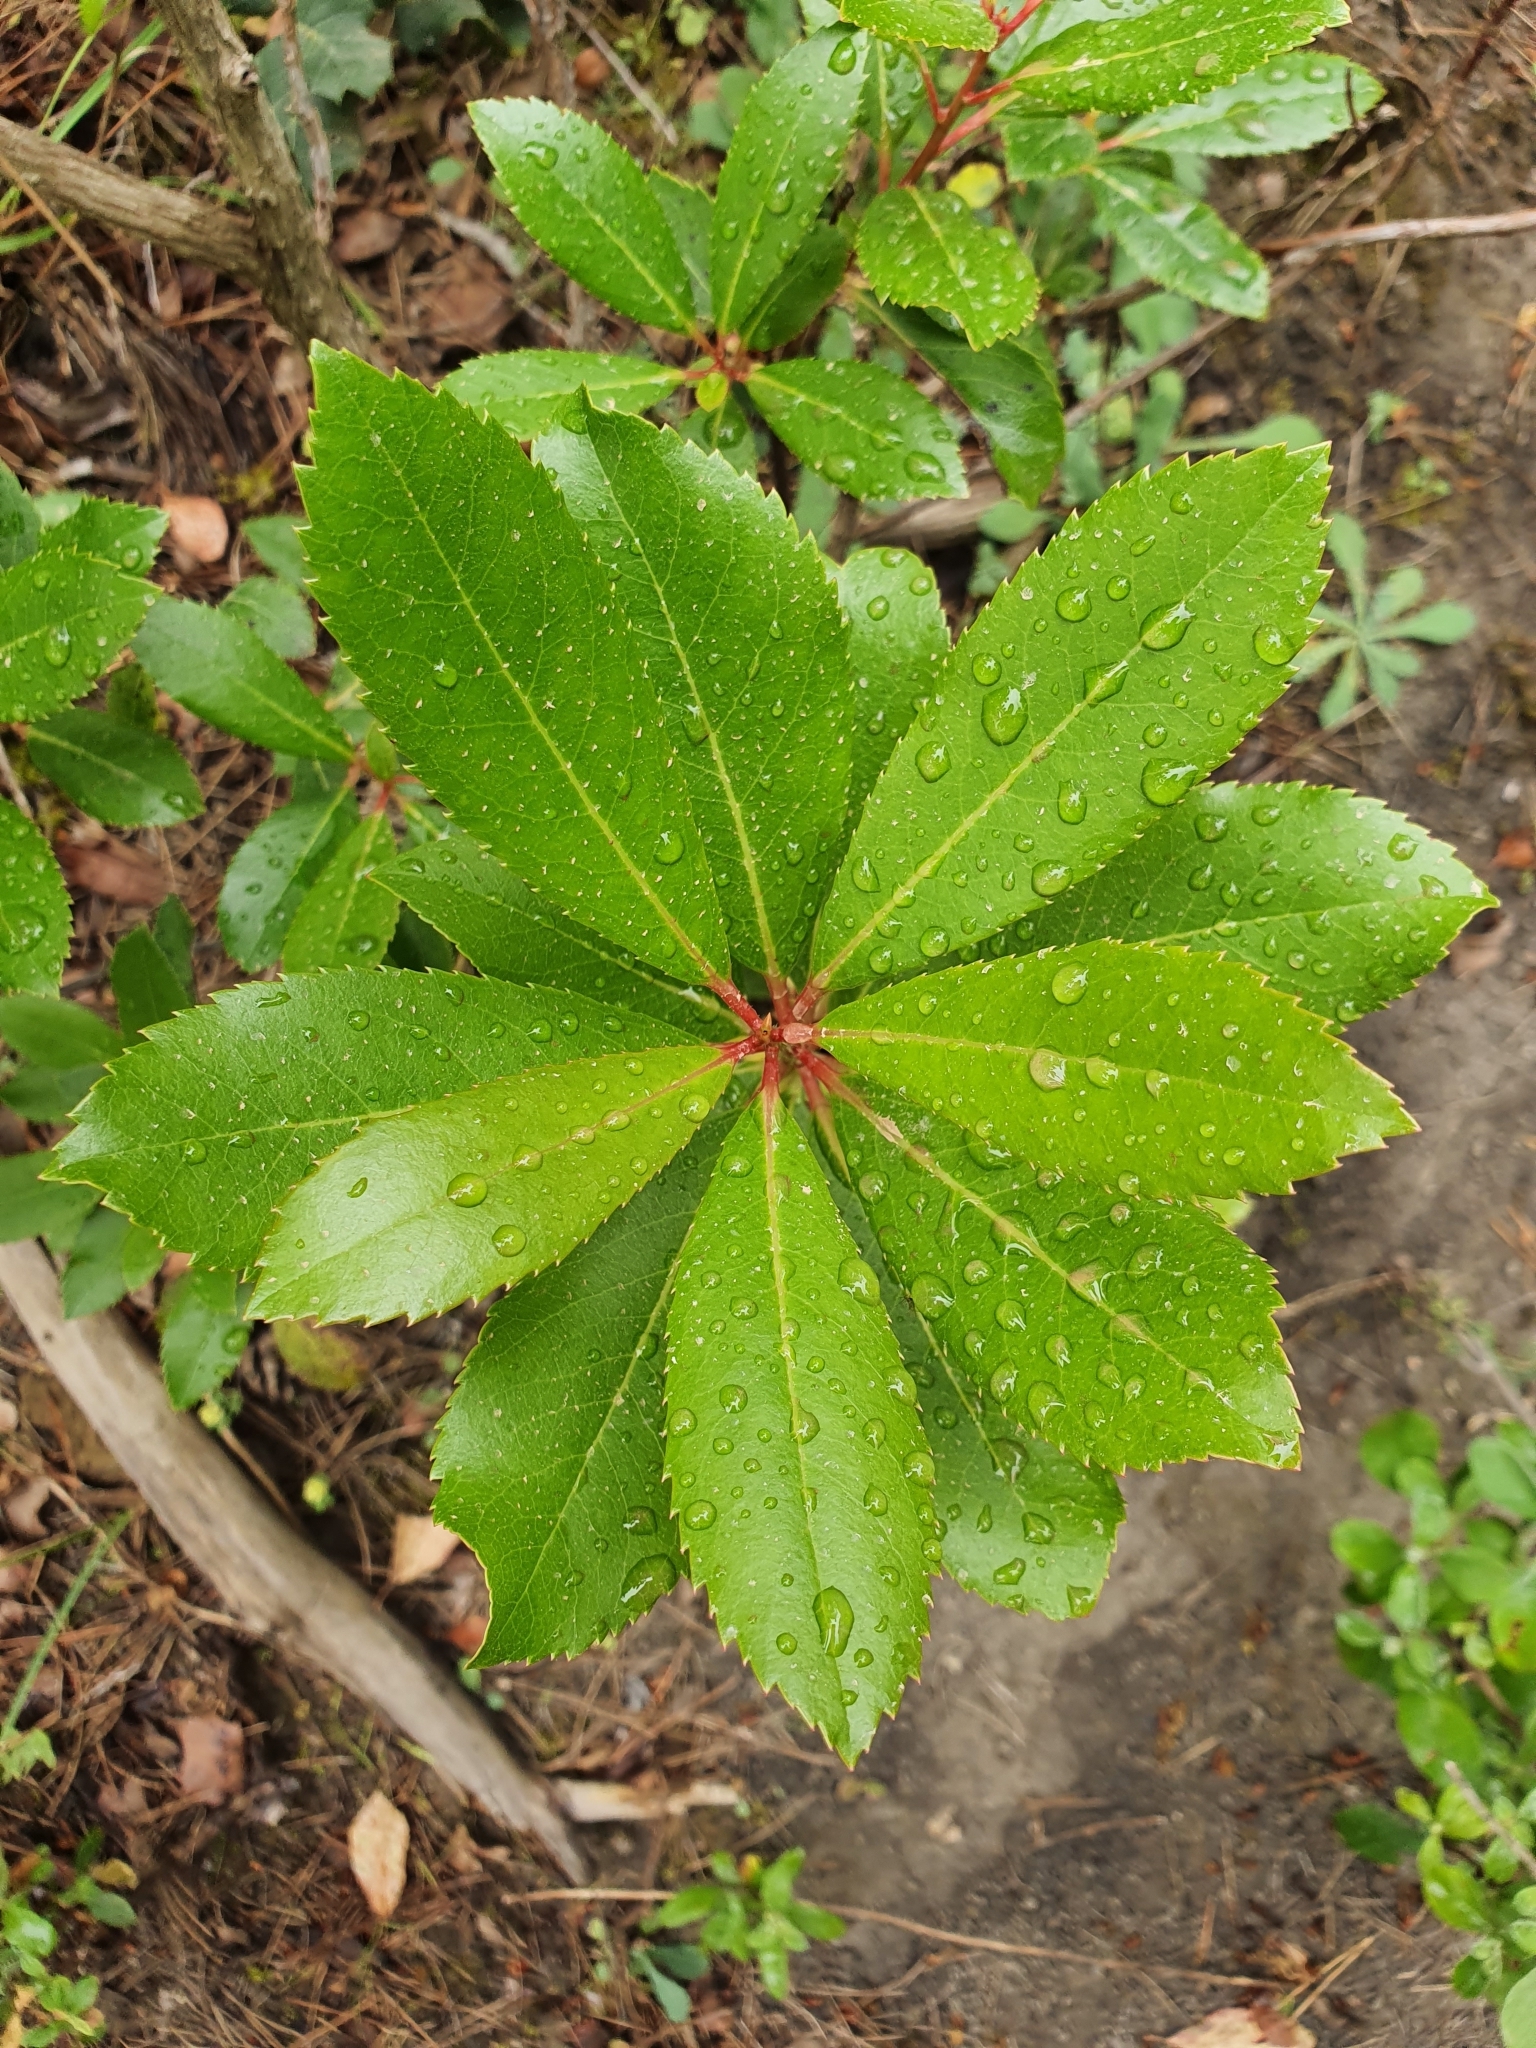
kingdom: Plantae
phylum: Tracheophyta
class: Magnoliopsida
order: Ericales
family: Ericaceae
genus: Arbutus
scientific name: Arbutus unedo
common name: Strawberry-tree
